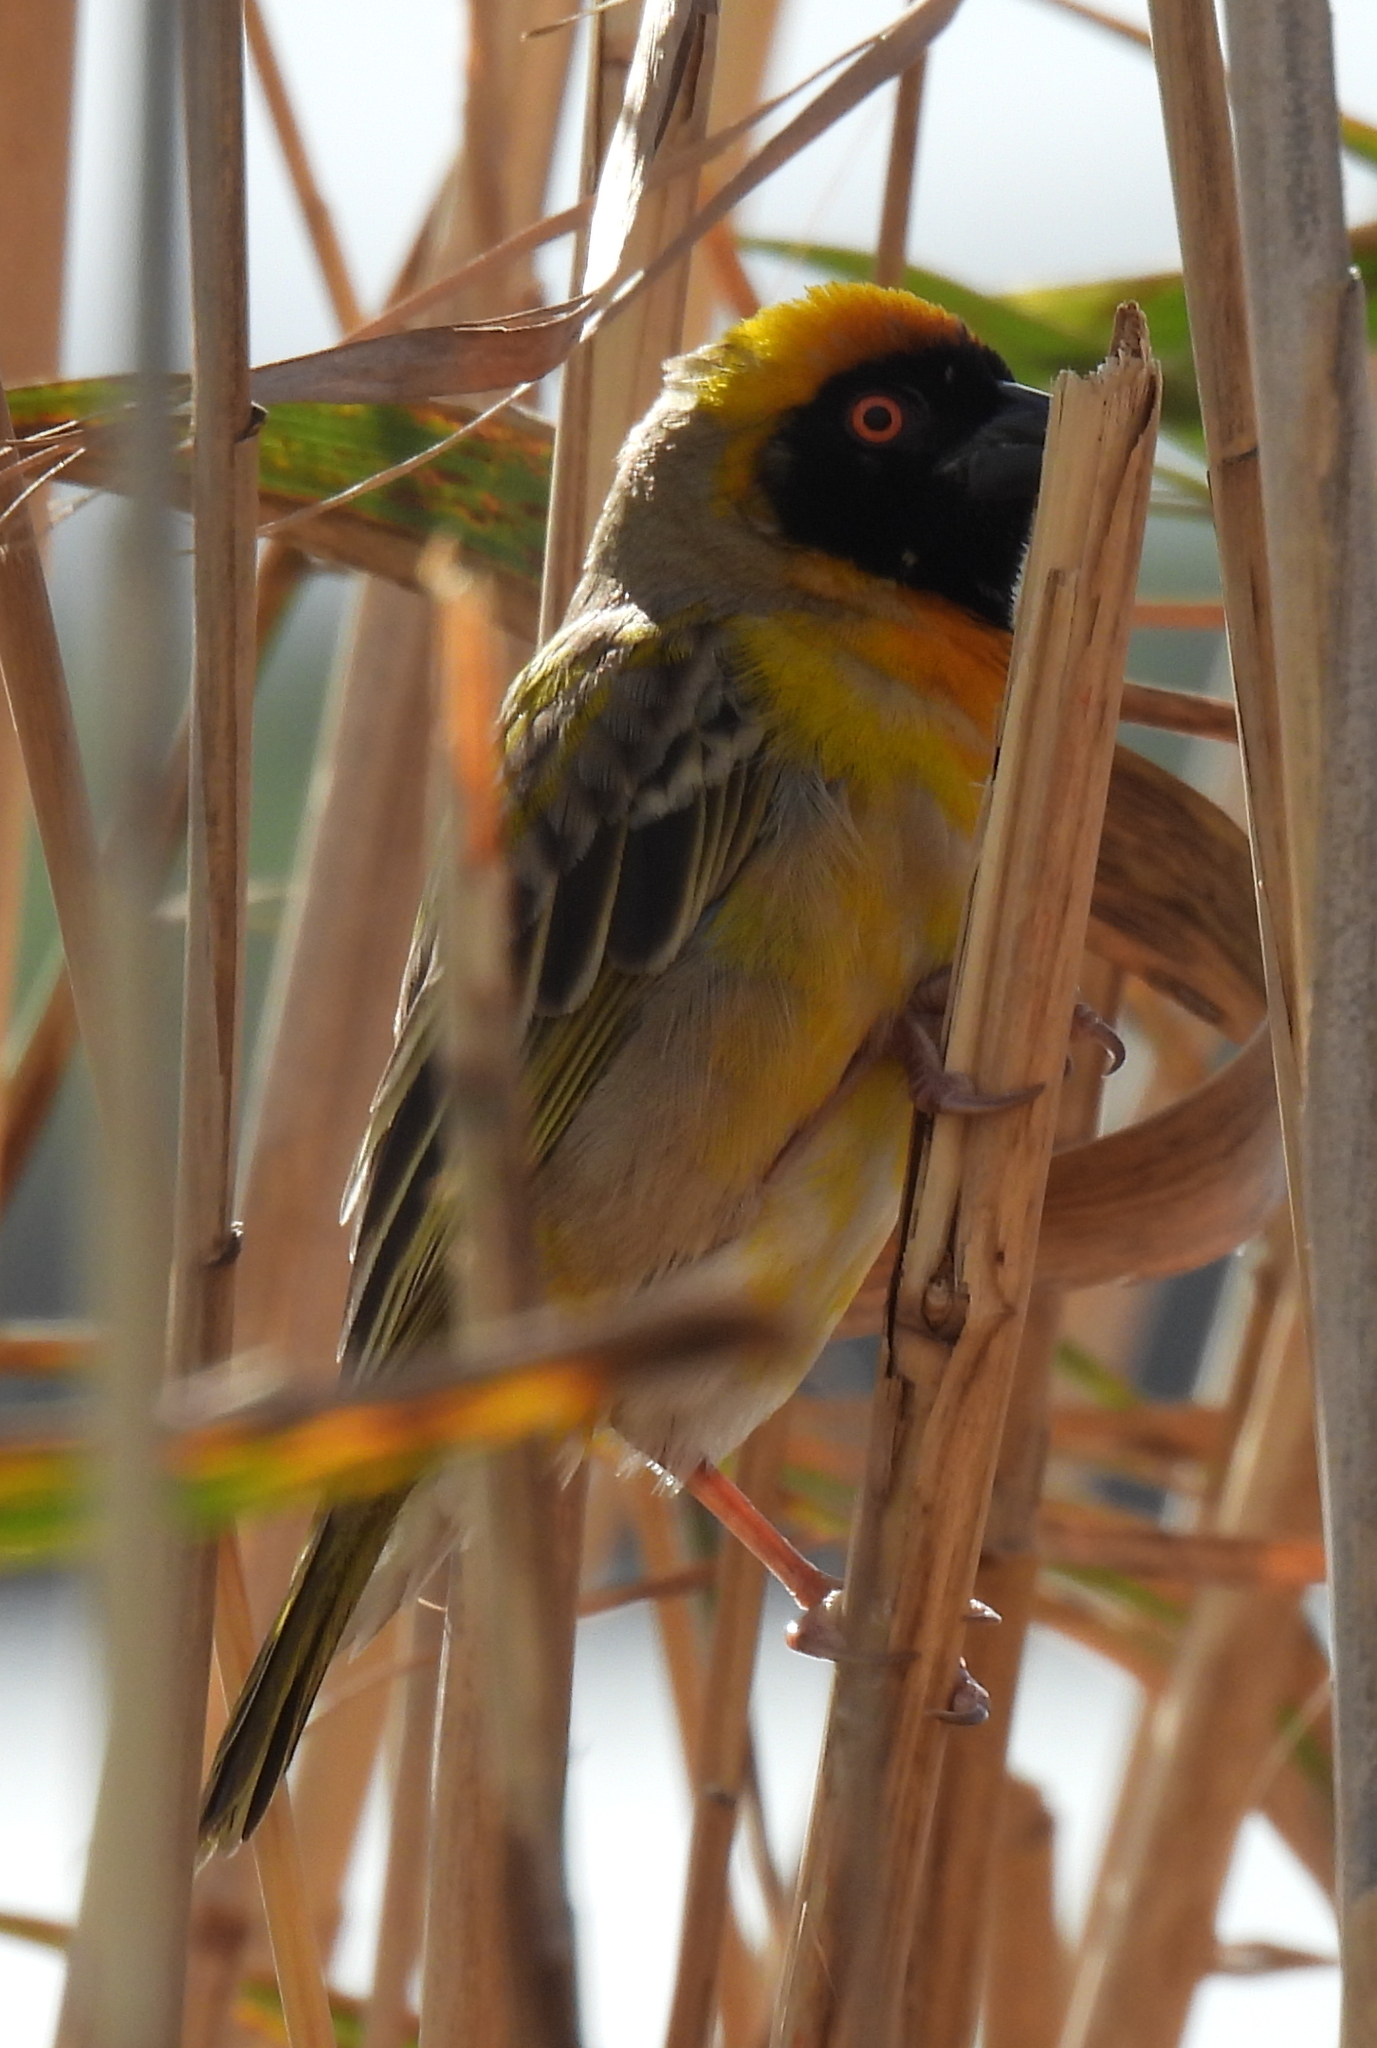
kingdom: Animalia
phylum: Chordata
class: Aves
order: Passeriformes
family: Ploceidae
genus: Ploceus
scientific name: Ploceus velatus
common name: Southern masked weaver
